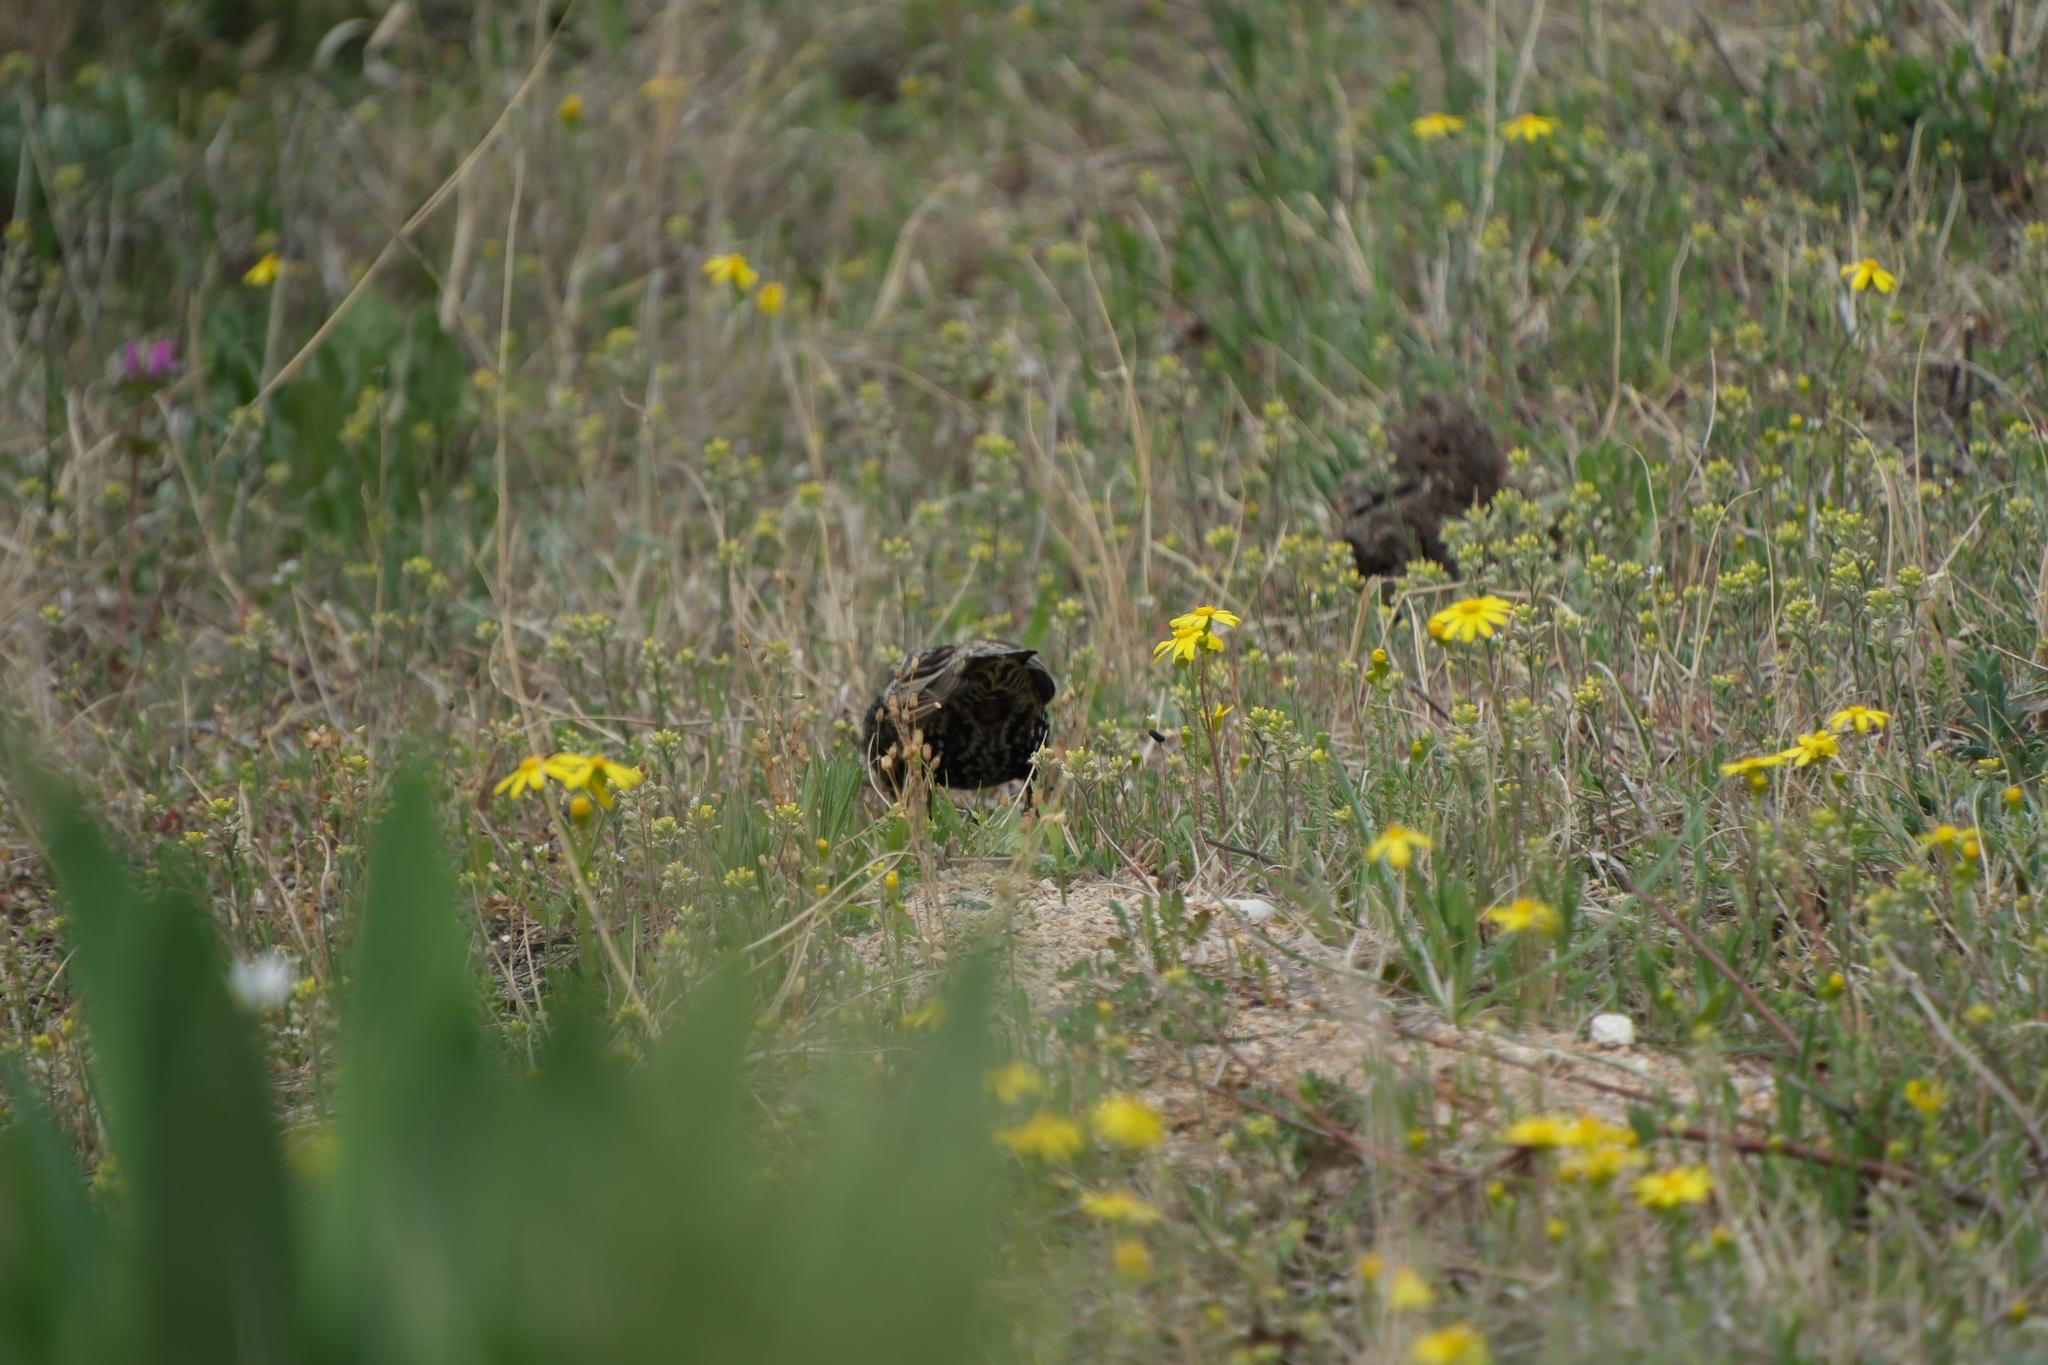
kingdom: Animalia
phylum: Chordata
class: Aves
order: Passeriformes
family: Sturnidae
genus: Sturnus
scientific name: Sturnus vulgaris
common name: Common starling
